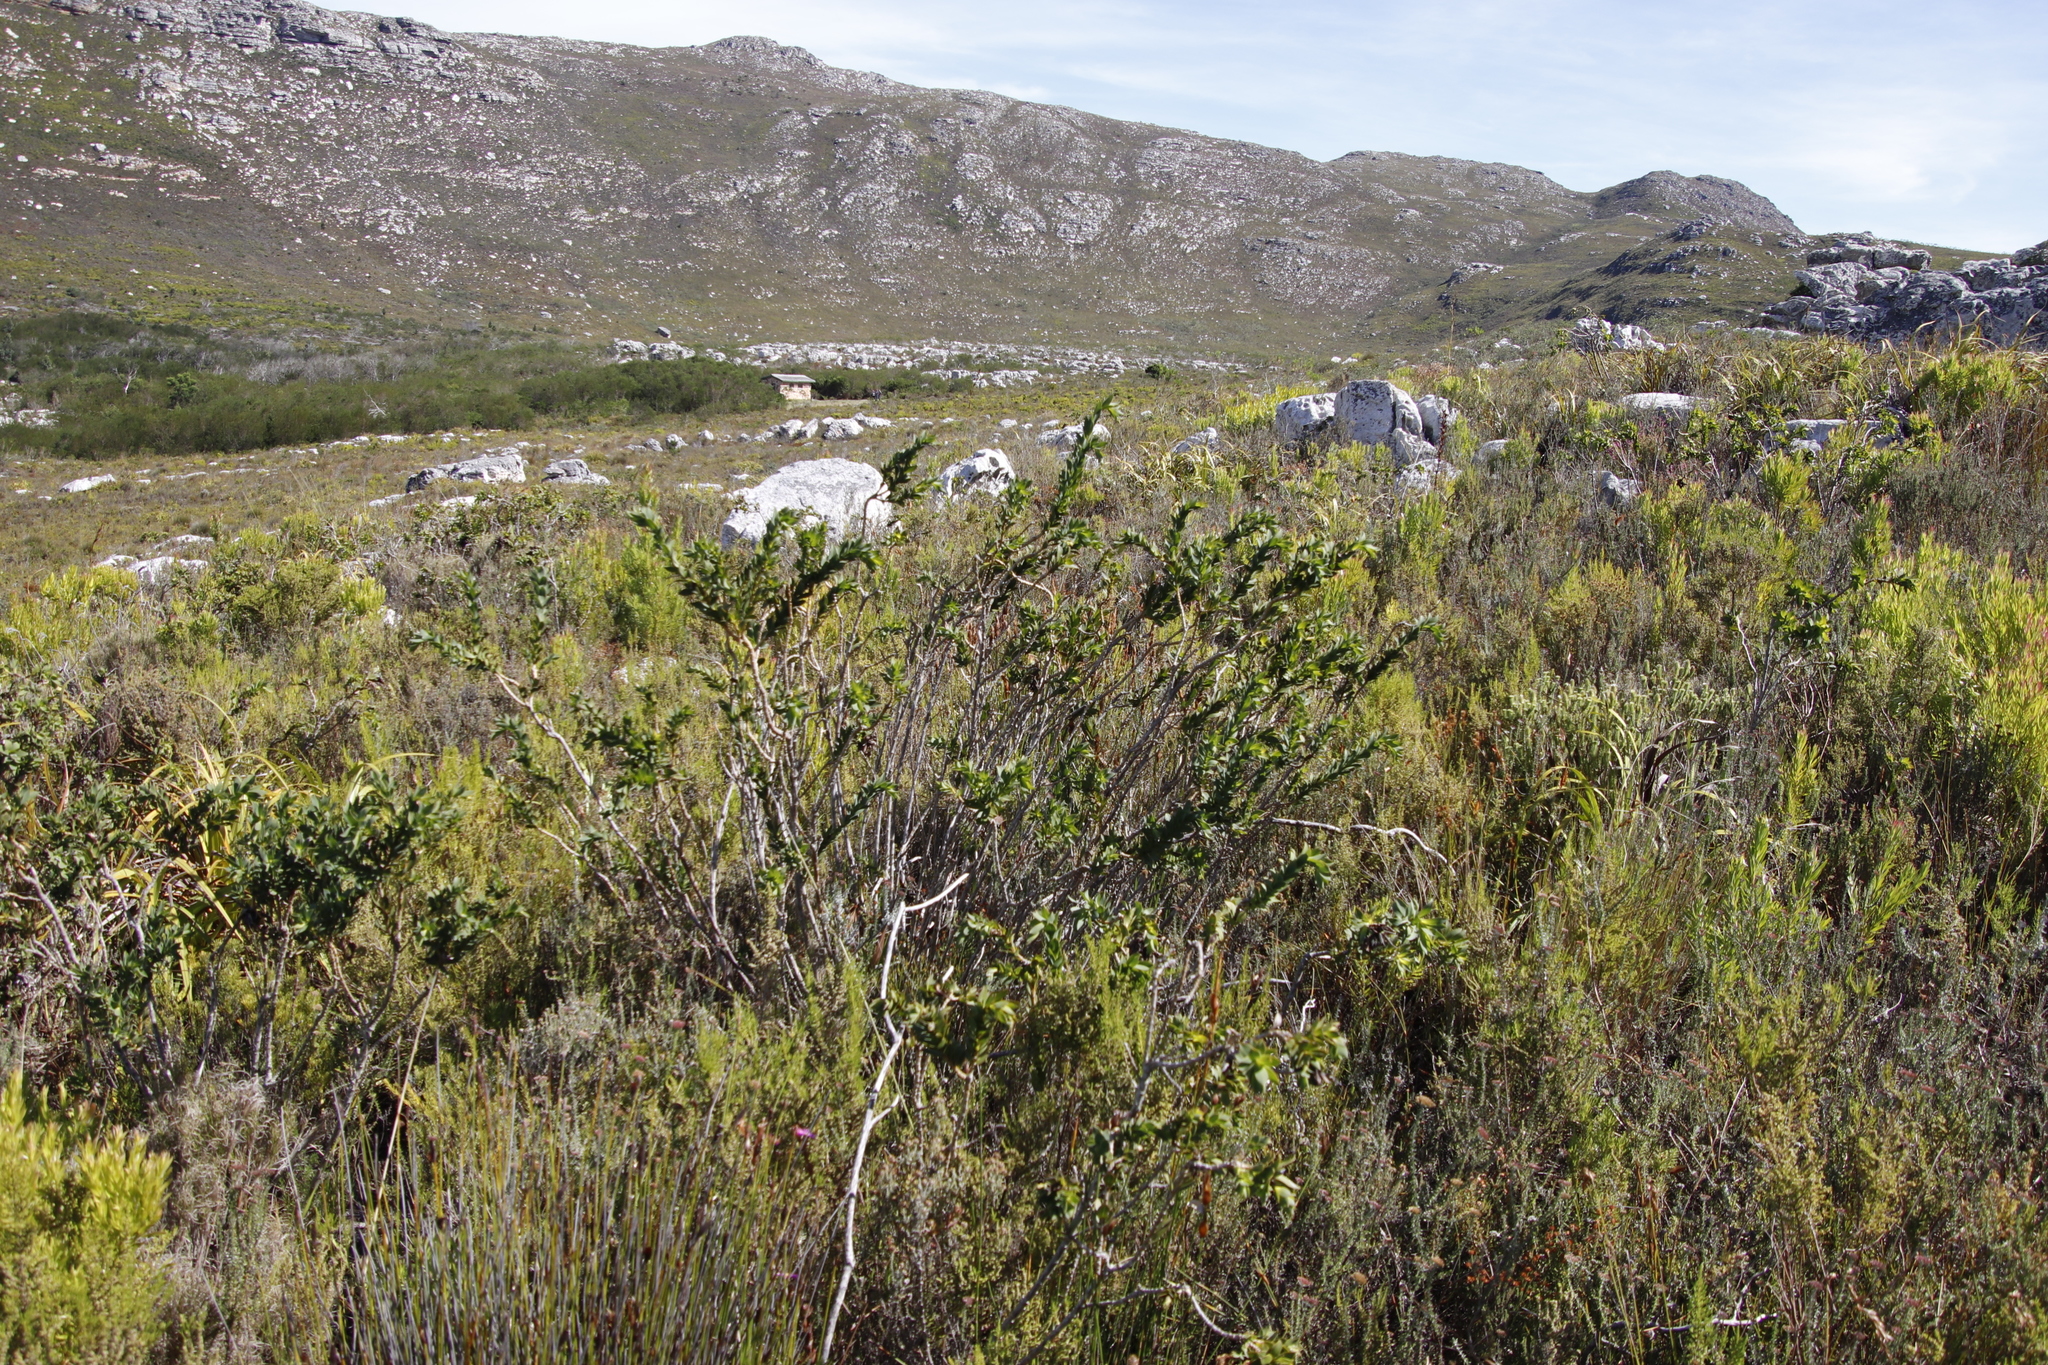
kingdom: Plantae
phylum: Tracheophyta
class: Magnoliopsida
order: Fabales
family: Fabaceae
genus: Liparia
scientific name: Liparia splendens
